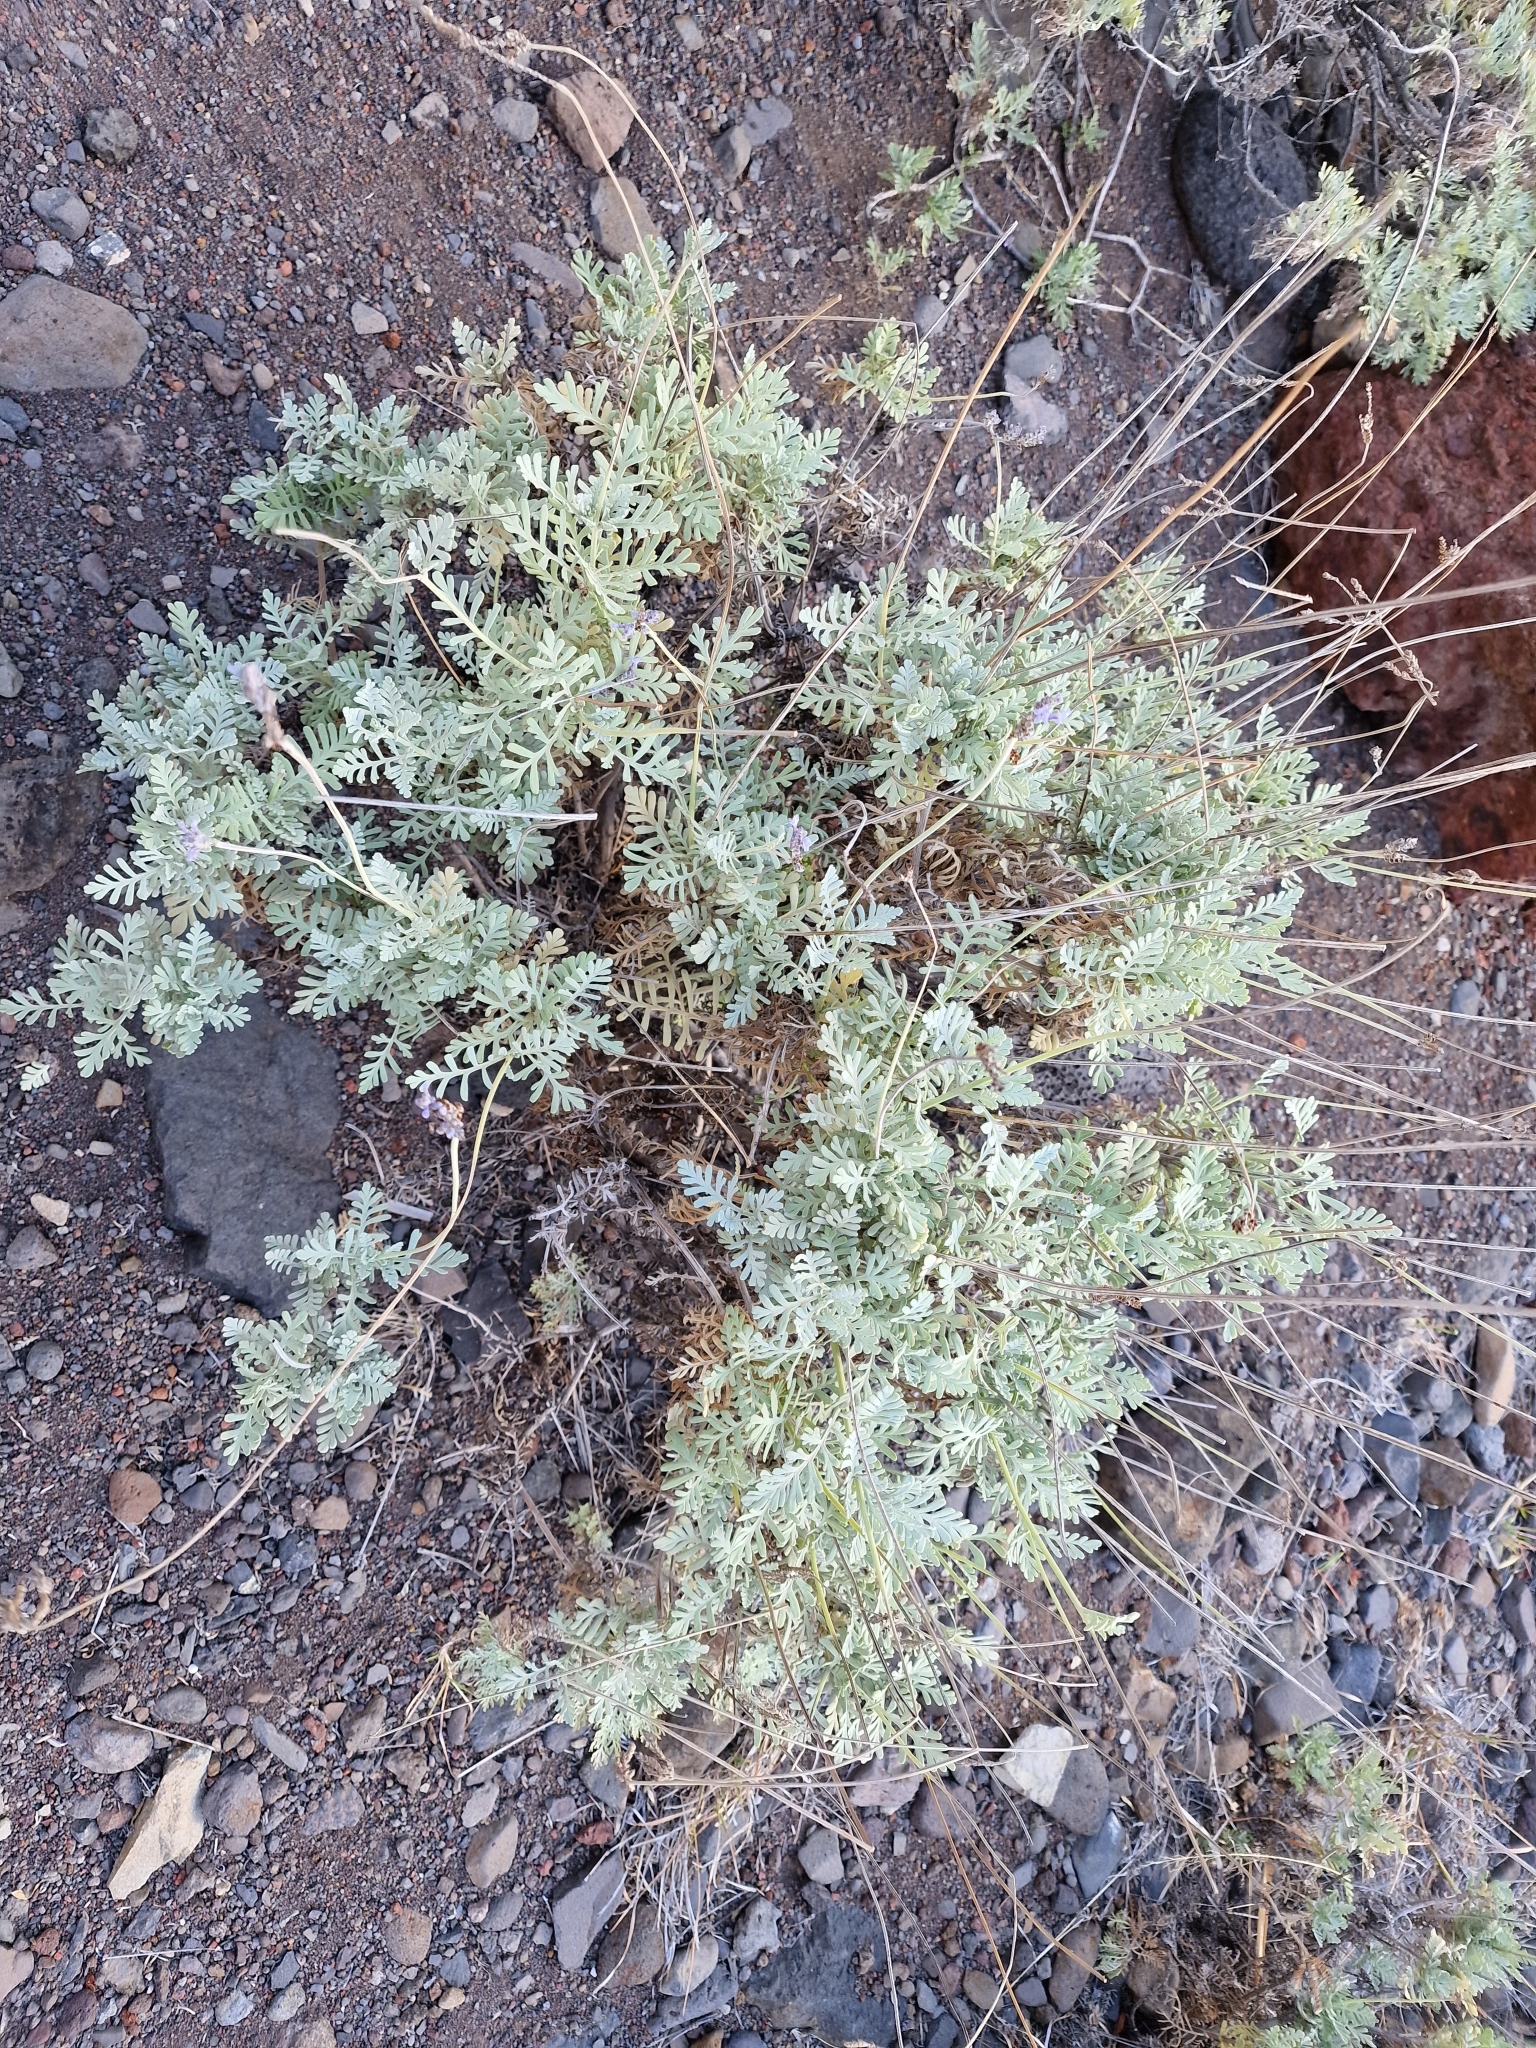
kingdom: Plantae
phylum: Tracheophyta
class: Magnoliopsida
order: Lamiales
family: Lamiaceae
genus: Lavandula
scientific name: Lavandula buchii
